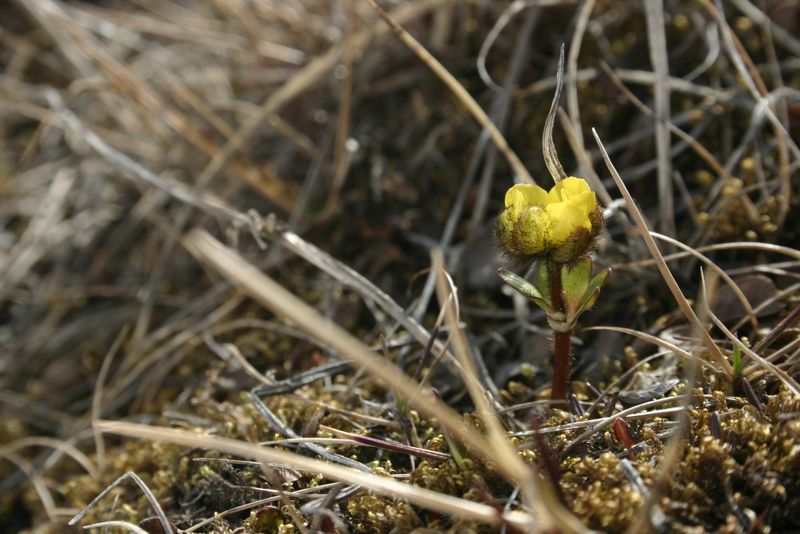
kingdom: Plantae
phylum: Tracheophyta
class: Magnoliopsida
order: Ranunculales
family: Ranunculaceae
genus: Ranunculus
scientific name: Ranunculus nivalis
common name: Snow buttercup
